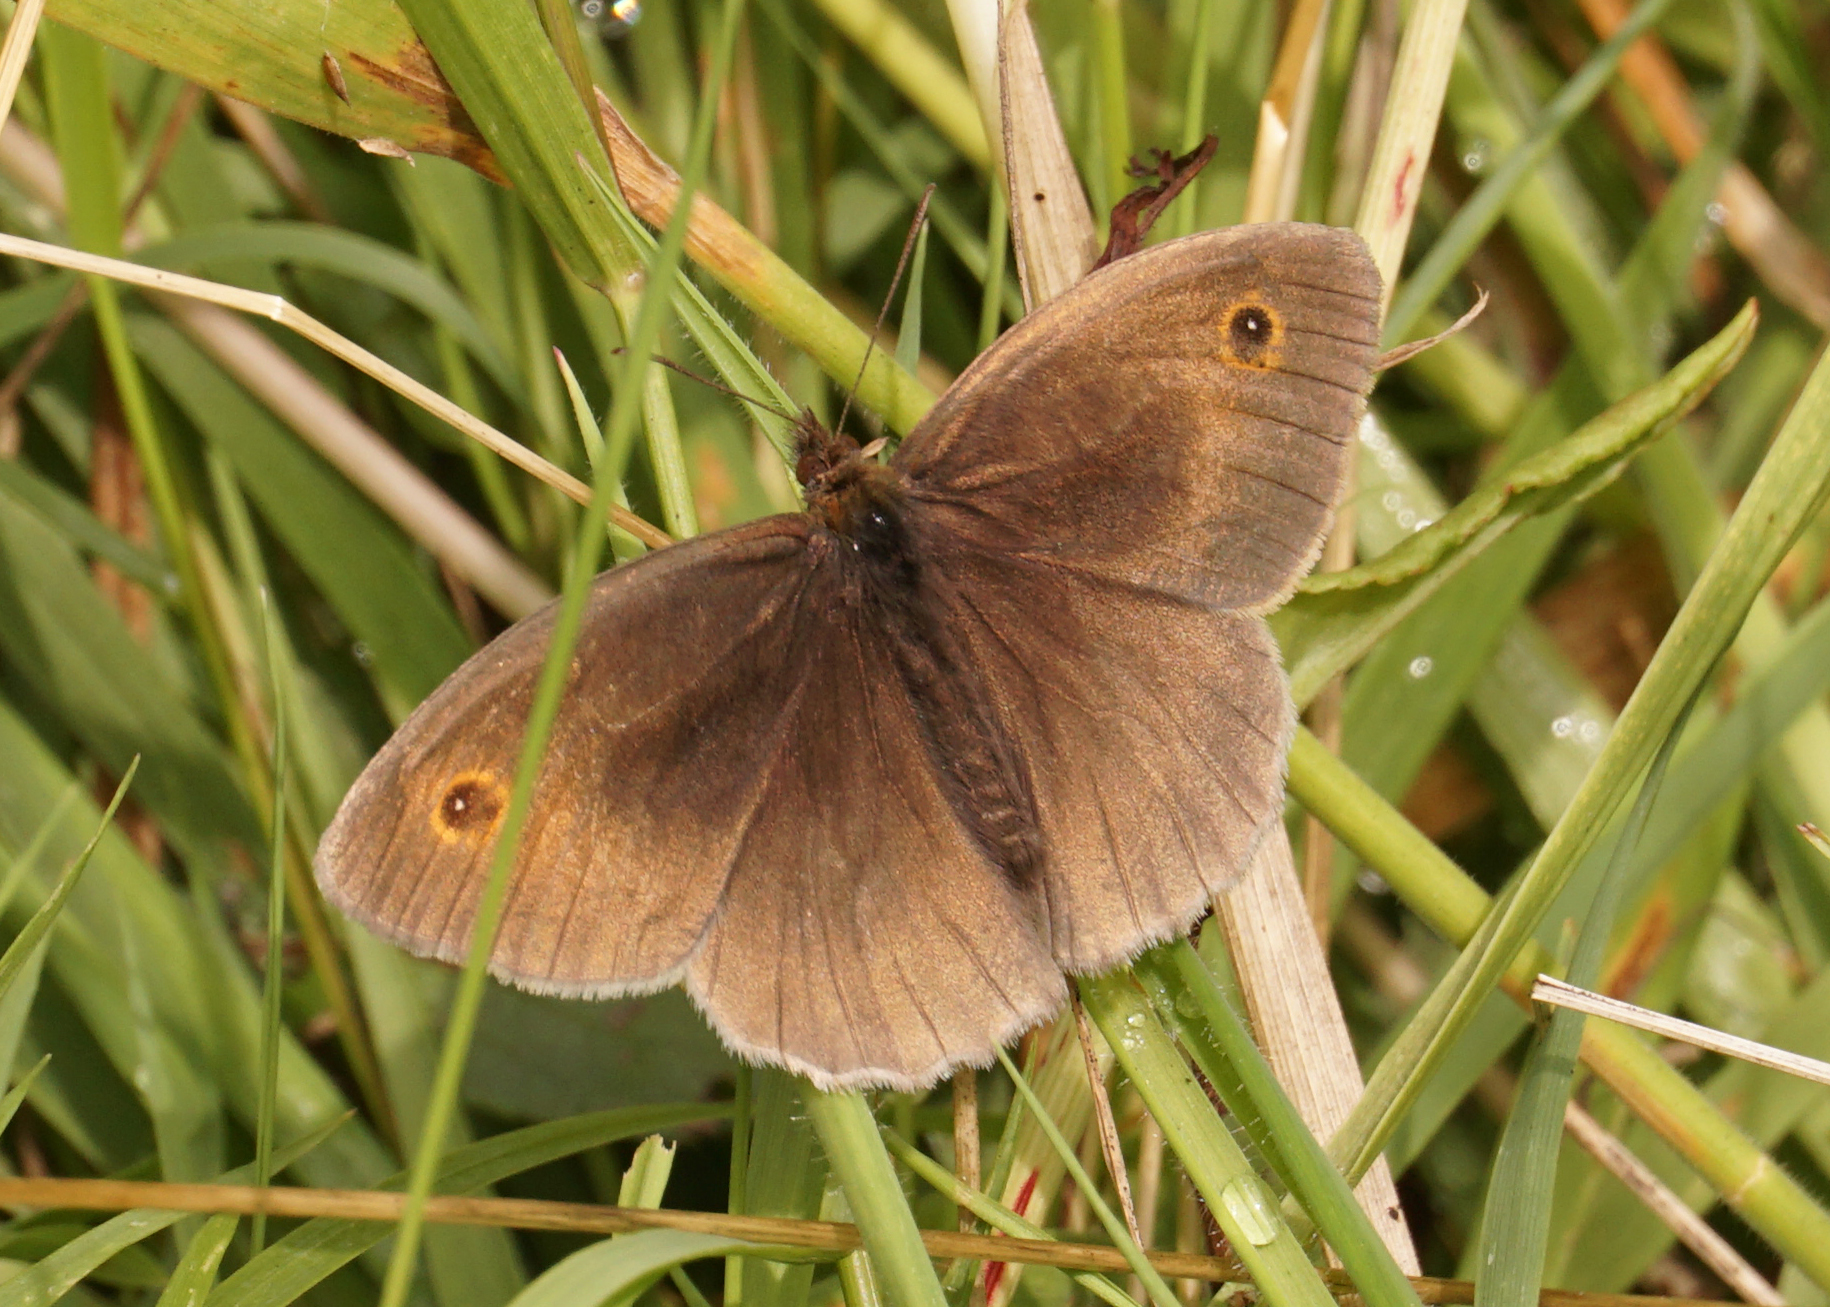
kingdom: Animalia
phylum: Arthropoda
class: Insecta
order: Lepidoptera
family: Nymphalidae
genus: Maniola
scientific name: Maniola jurtina
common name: Meadow brown
